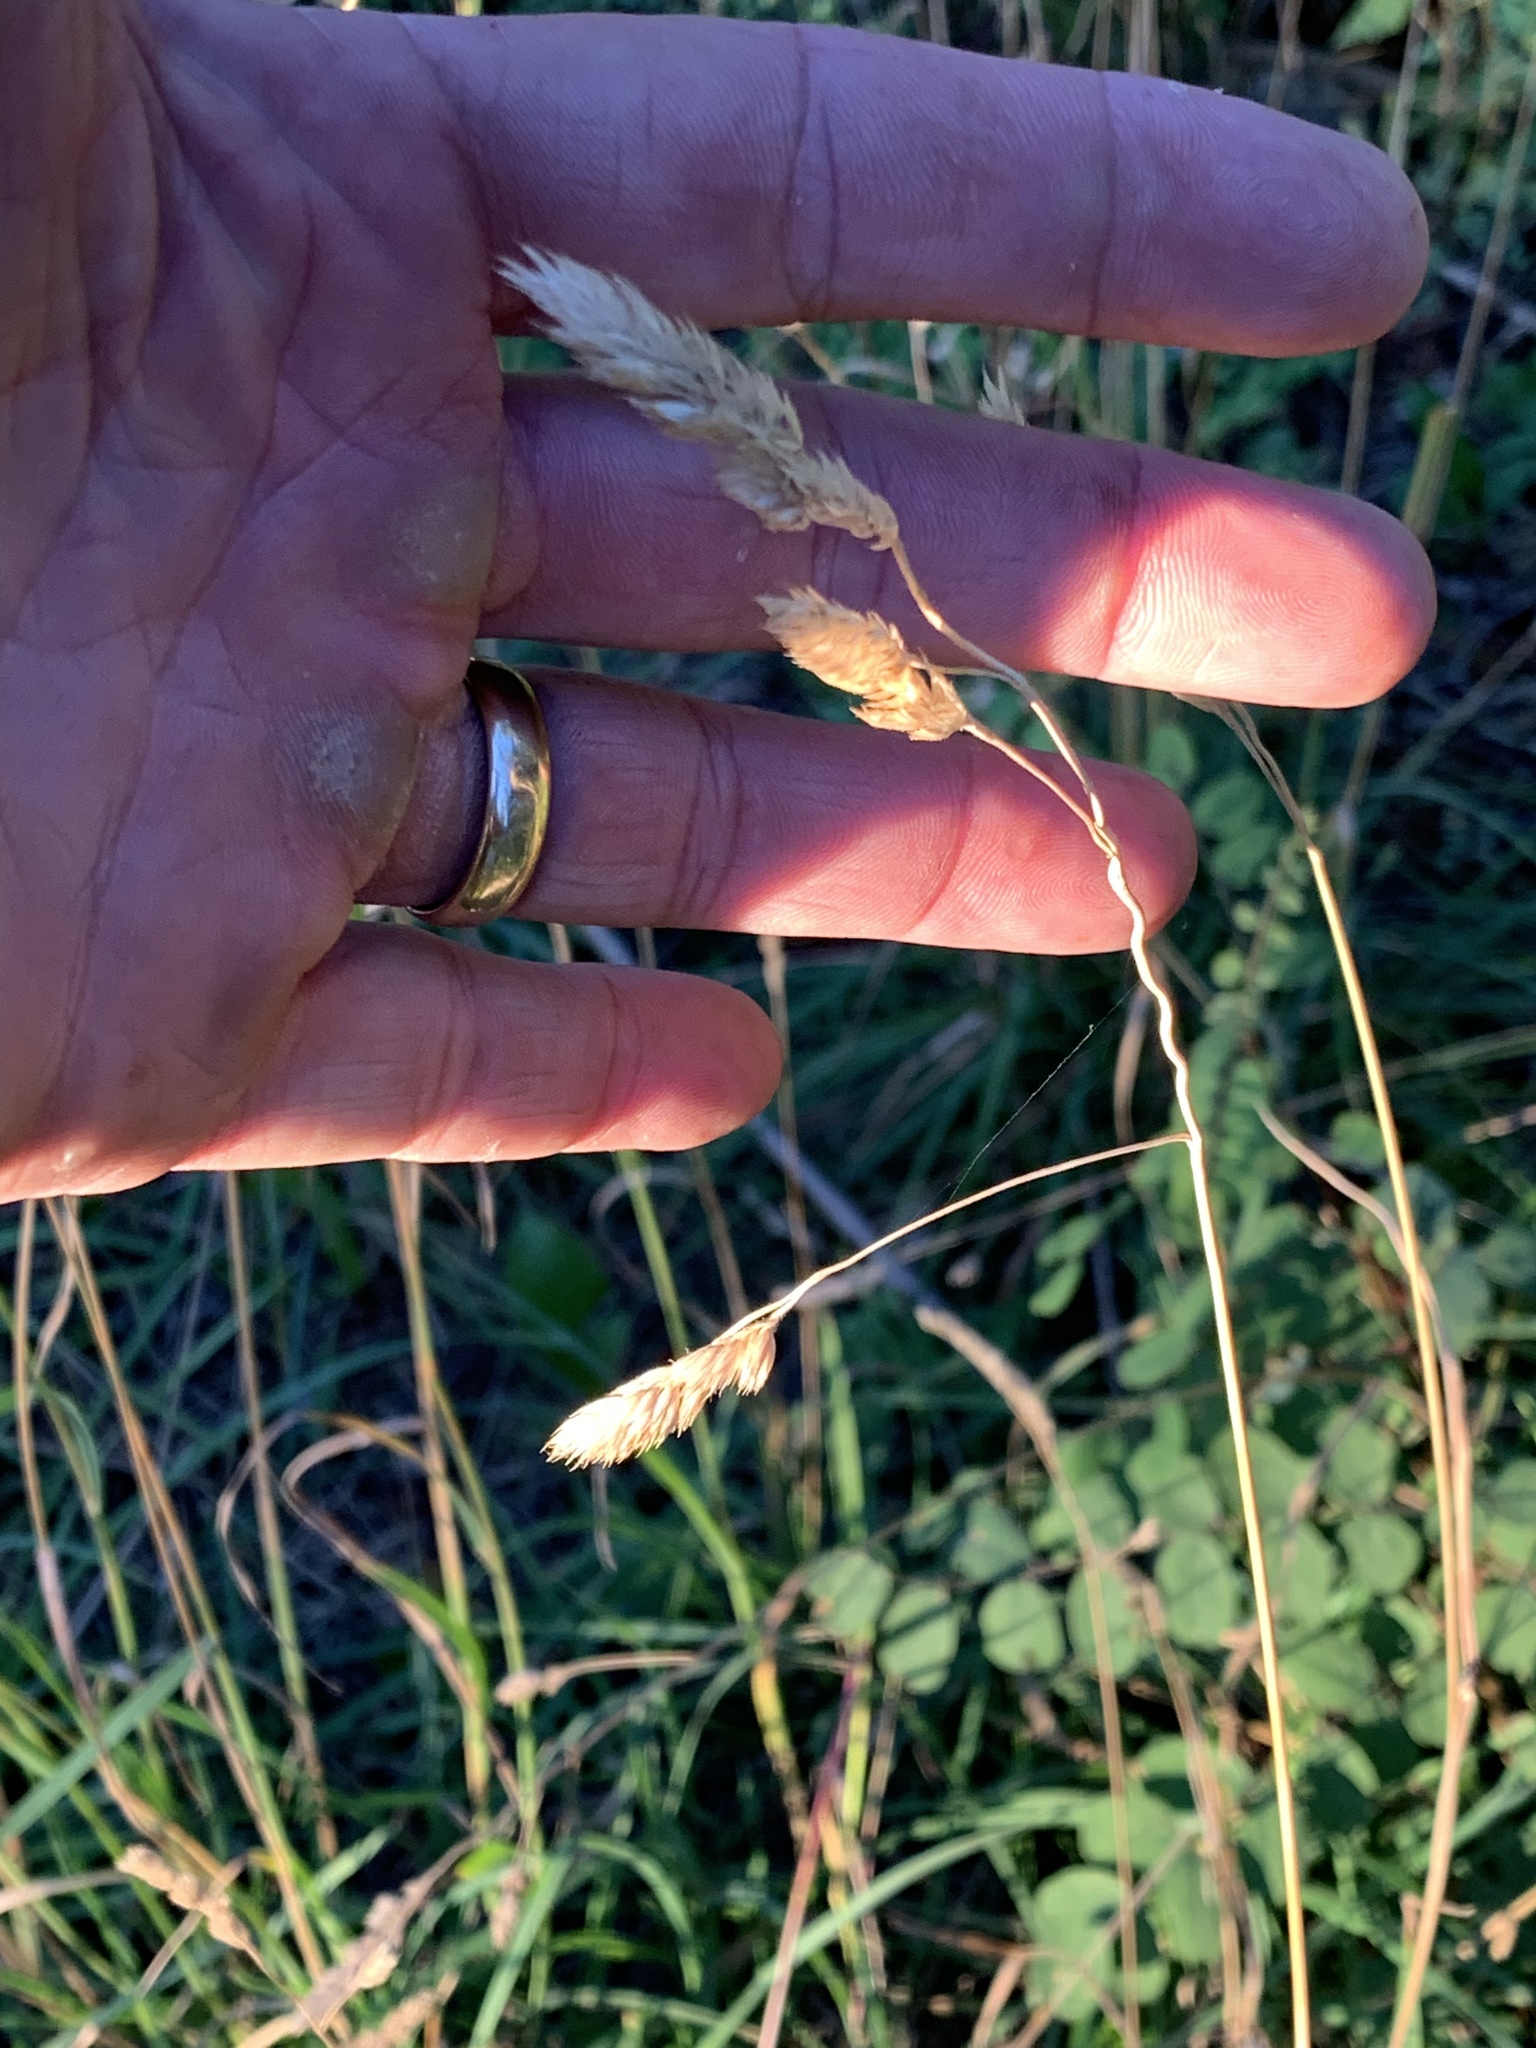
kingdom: Plantae
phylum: Tracheophyta
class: Liliopsida
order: Poales
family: Poaceae
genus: Dactylis
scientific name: Dactylis glomerata
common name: Orchardgrass
